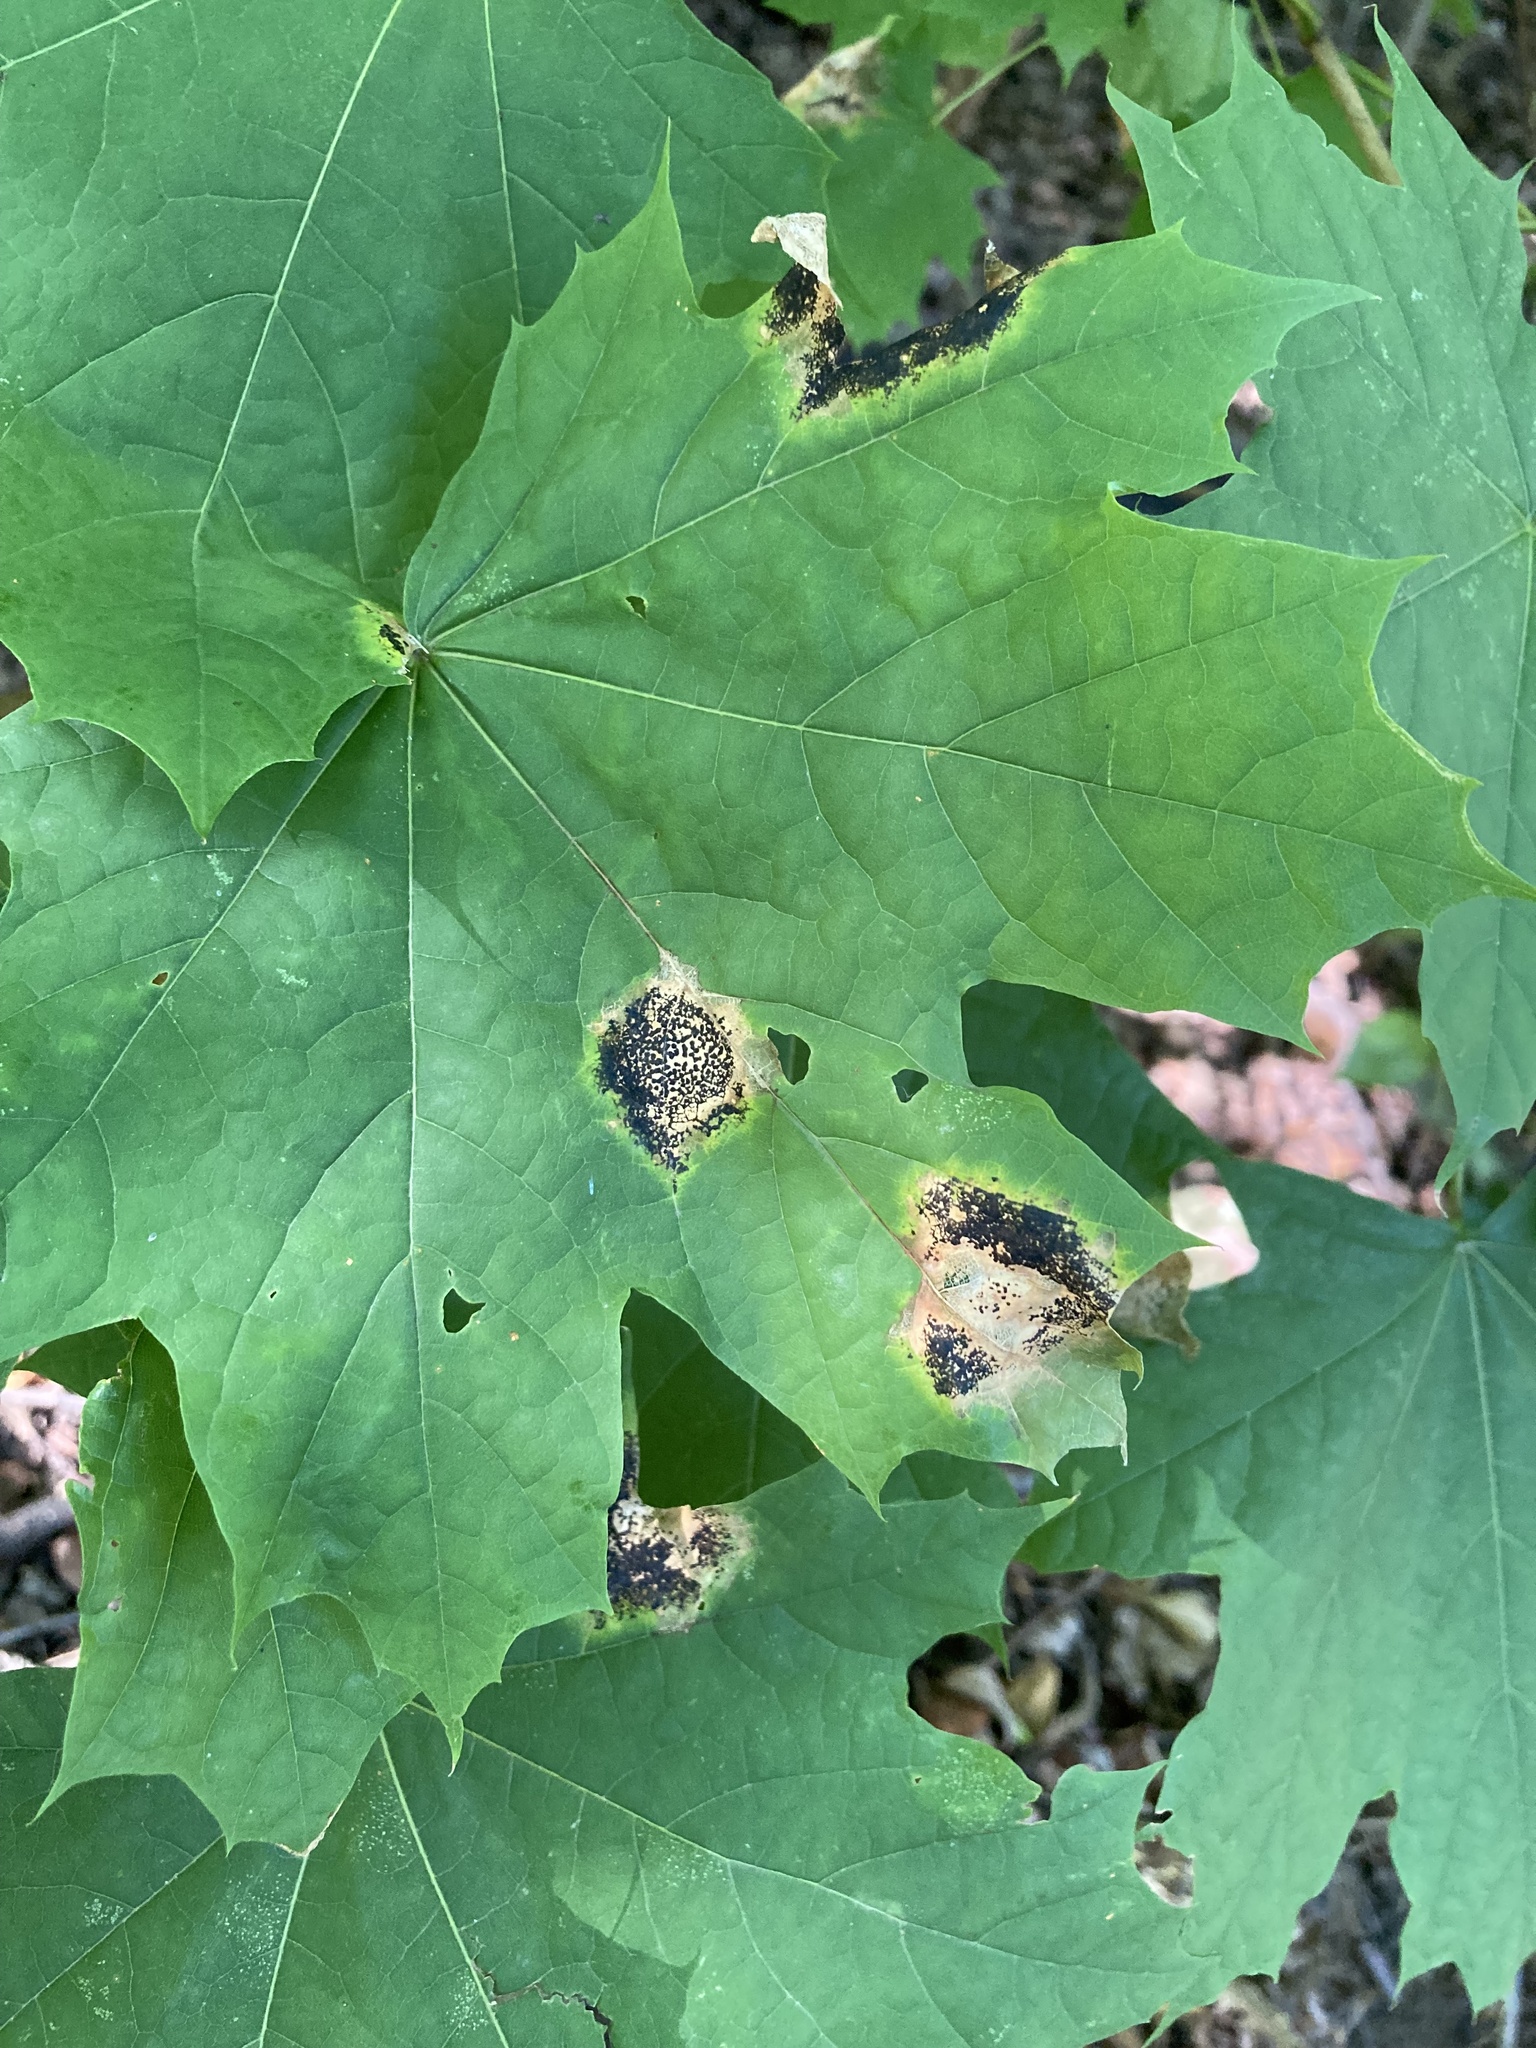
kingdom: Fungi
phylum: Ascomycota
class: Leotiomycetes
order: Rhytismatales
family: Rhytismataceae
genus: Rhytisma
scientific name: Rhytisma acerinum
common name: European tar spot
